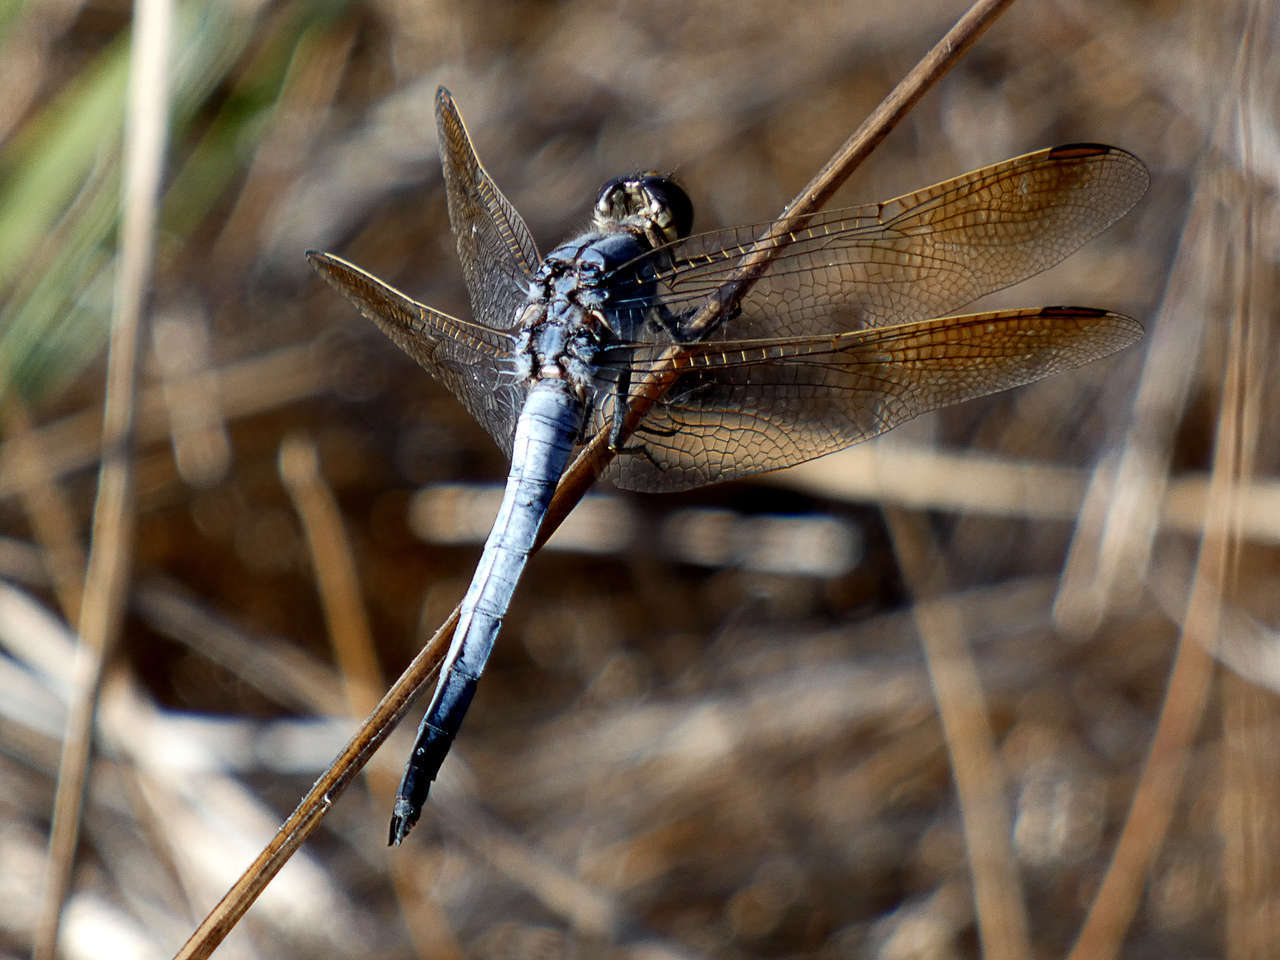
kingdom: Animalia
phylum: Arthropoda
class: Insecta
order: Odonata
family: Libellulidae
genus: Orthetrum
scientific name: Orthetrum caledonicum
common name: Blue skimmer
